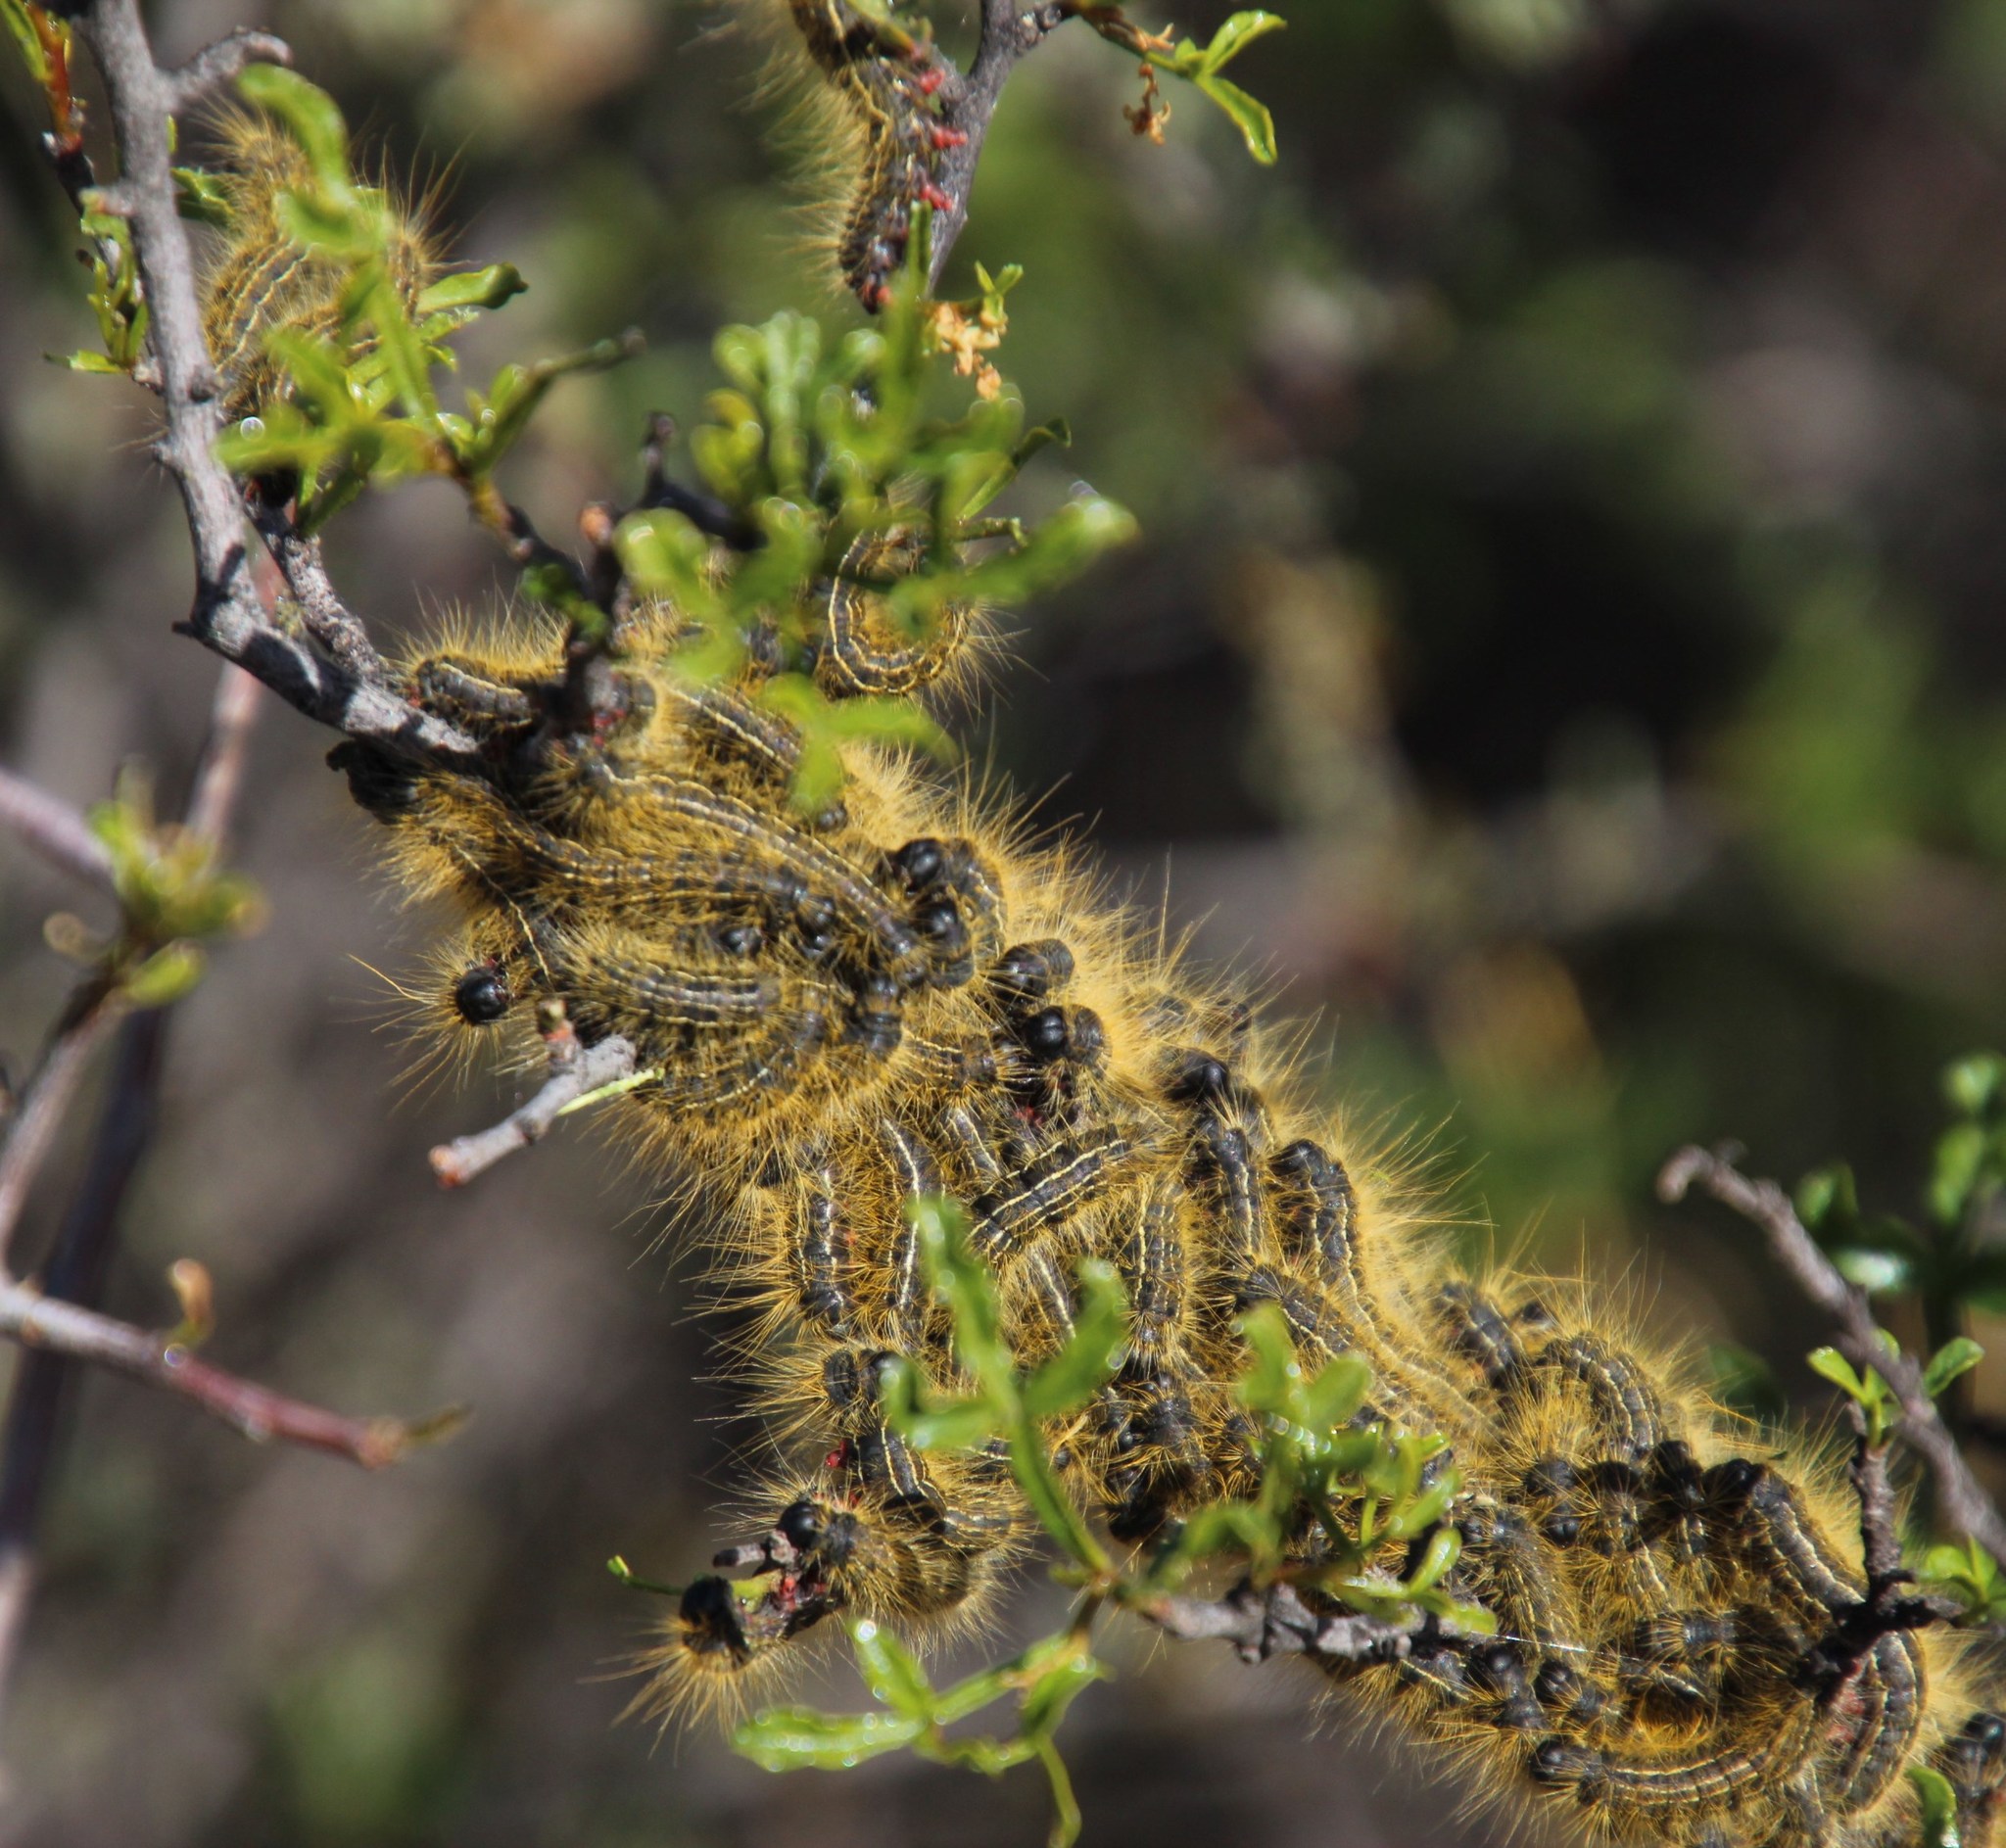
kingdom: Plantae
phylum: Tracheophyta
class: Magnoliopsida
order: Sapindales
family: Anacardiaceae
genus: Searsia
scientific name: Searsia undulata
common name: Namaqua kunibush
